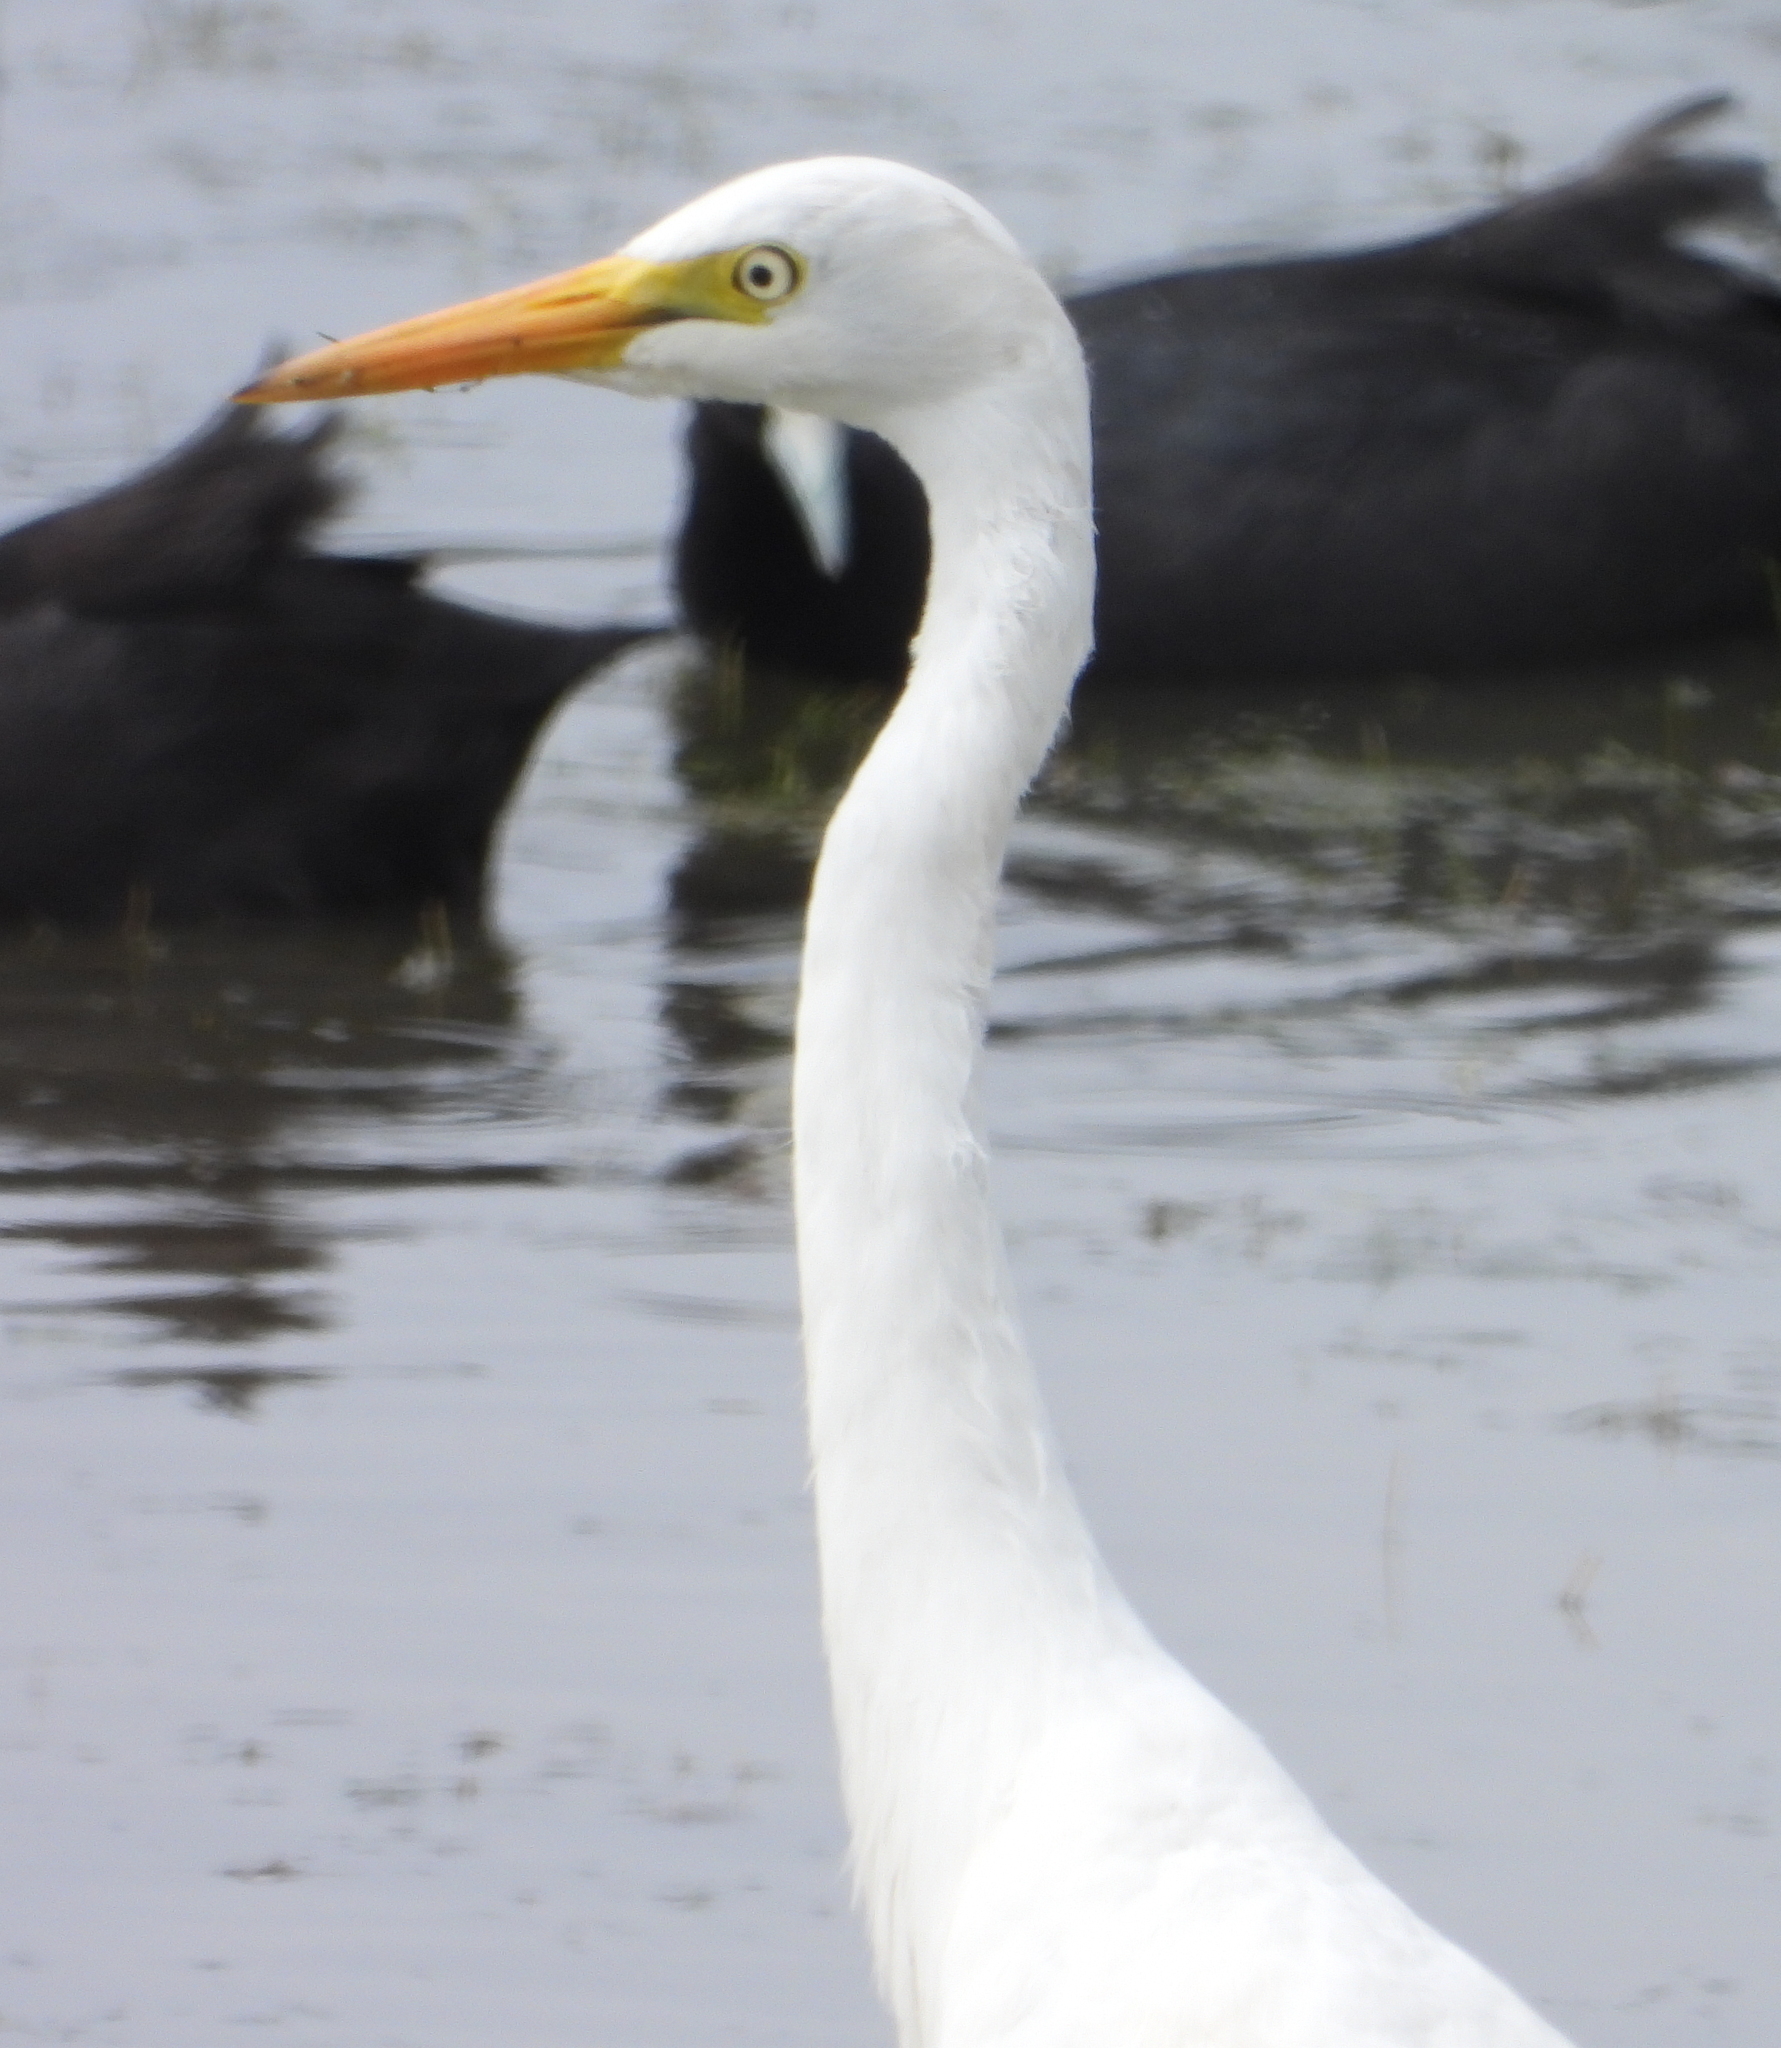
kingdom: Animalia
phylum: Chordata
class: Aves
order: Pelecaniformes
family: Ardeidae
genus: Egretta
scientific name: Egretta intermedia
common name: Intermediate egret
